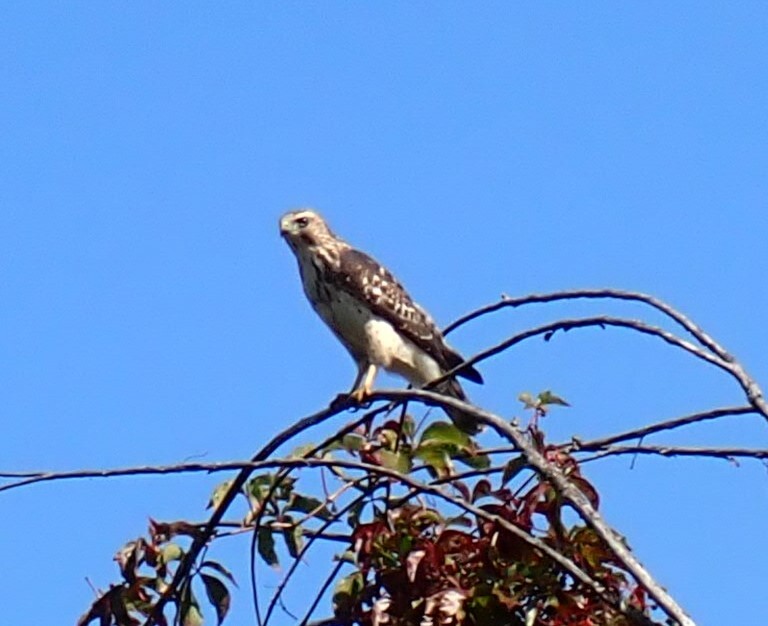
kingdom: Animalia
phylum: Chordata
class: Aves
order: Accipitriformes
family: Accipitridae
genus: Buteo
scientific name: Buteo platypterus
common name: Broad-winged hawk
